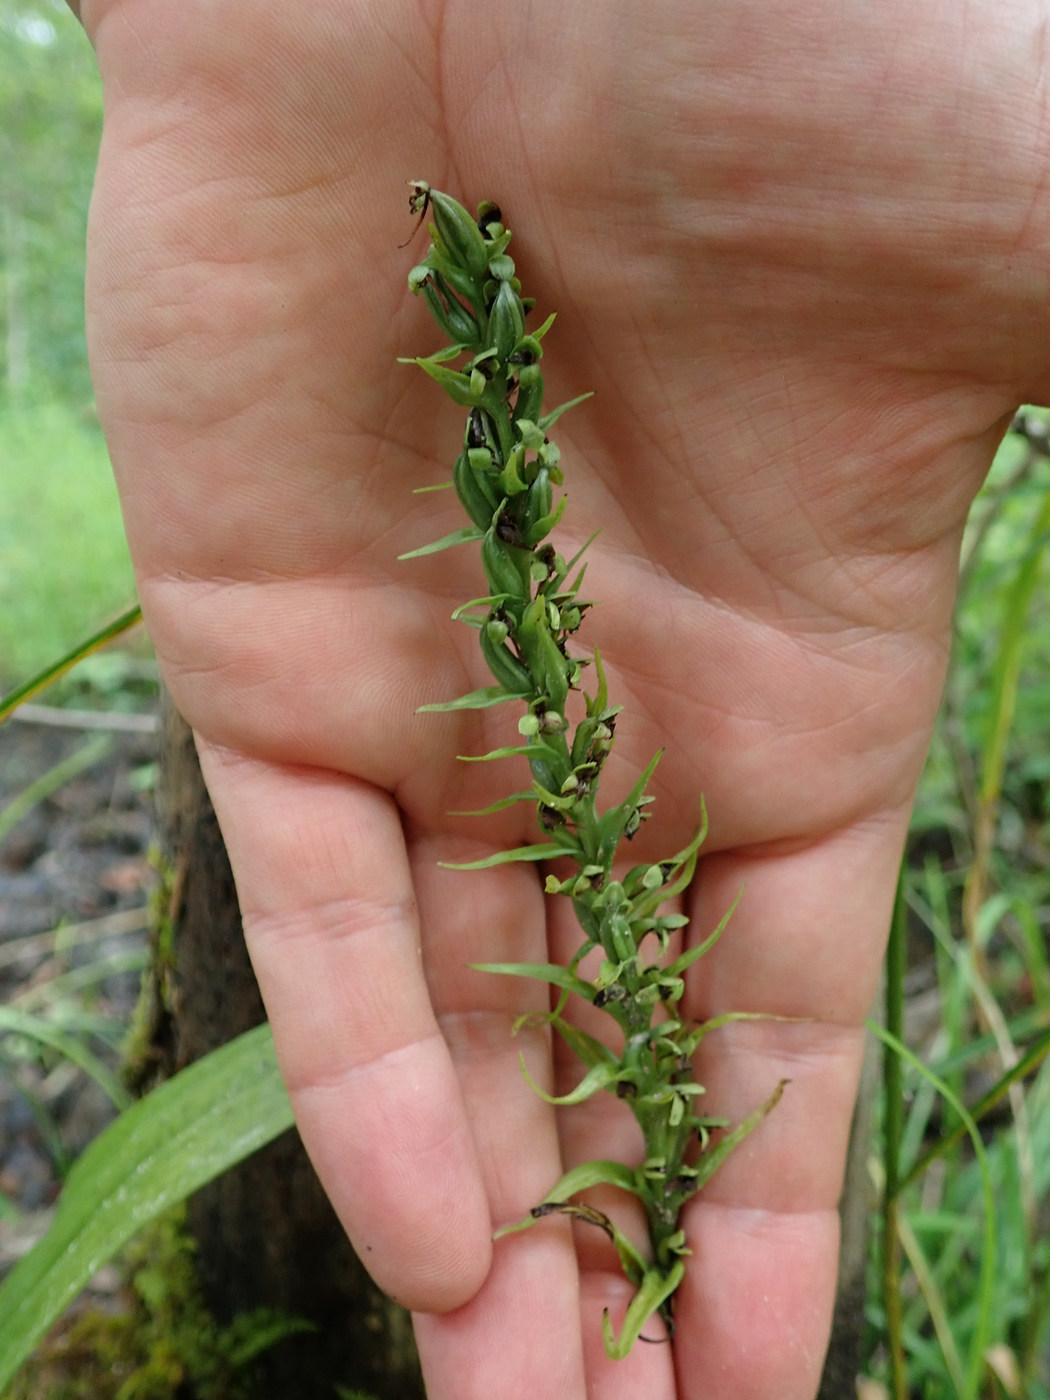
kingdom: Plantae
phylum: Tracheophyta
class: Liliopsida
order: Asparagales
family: Orchidaceae
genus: Platanthera
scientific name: Platanthera flava
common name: Gypsy-spikes
